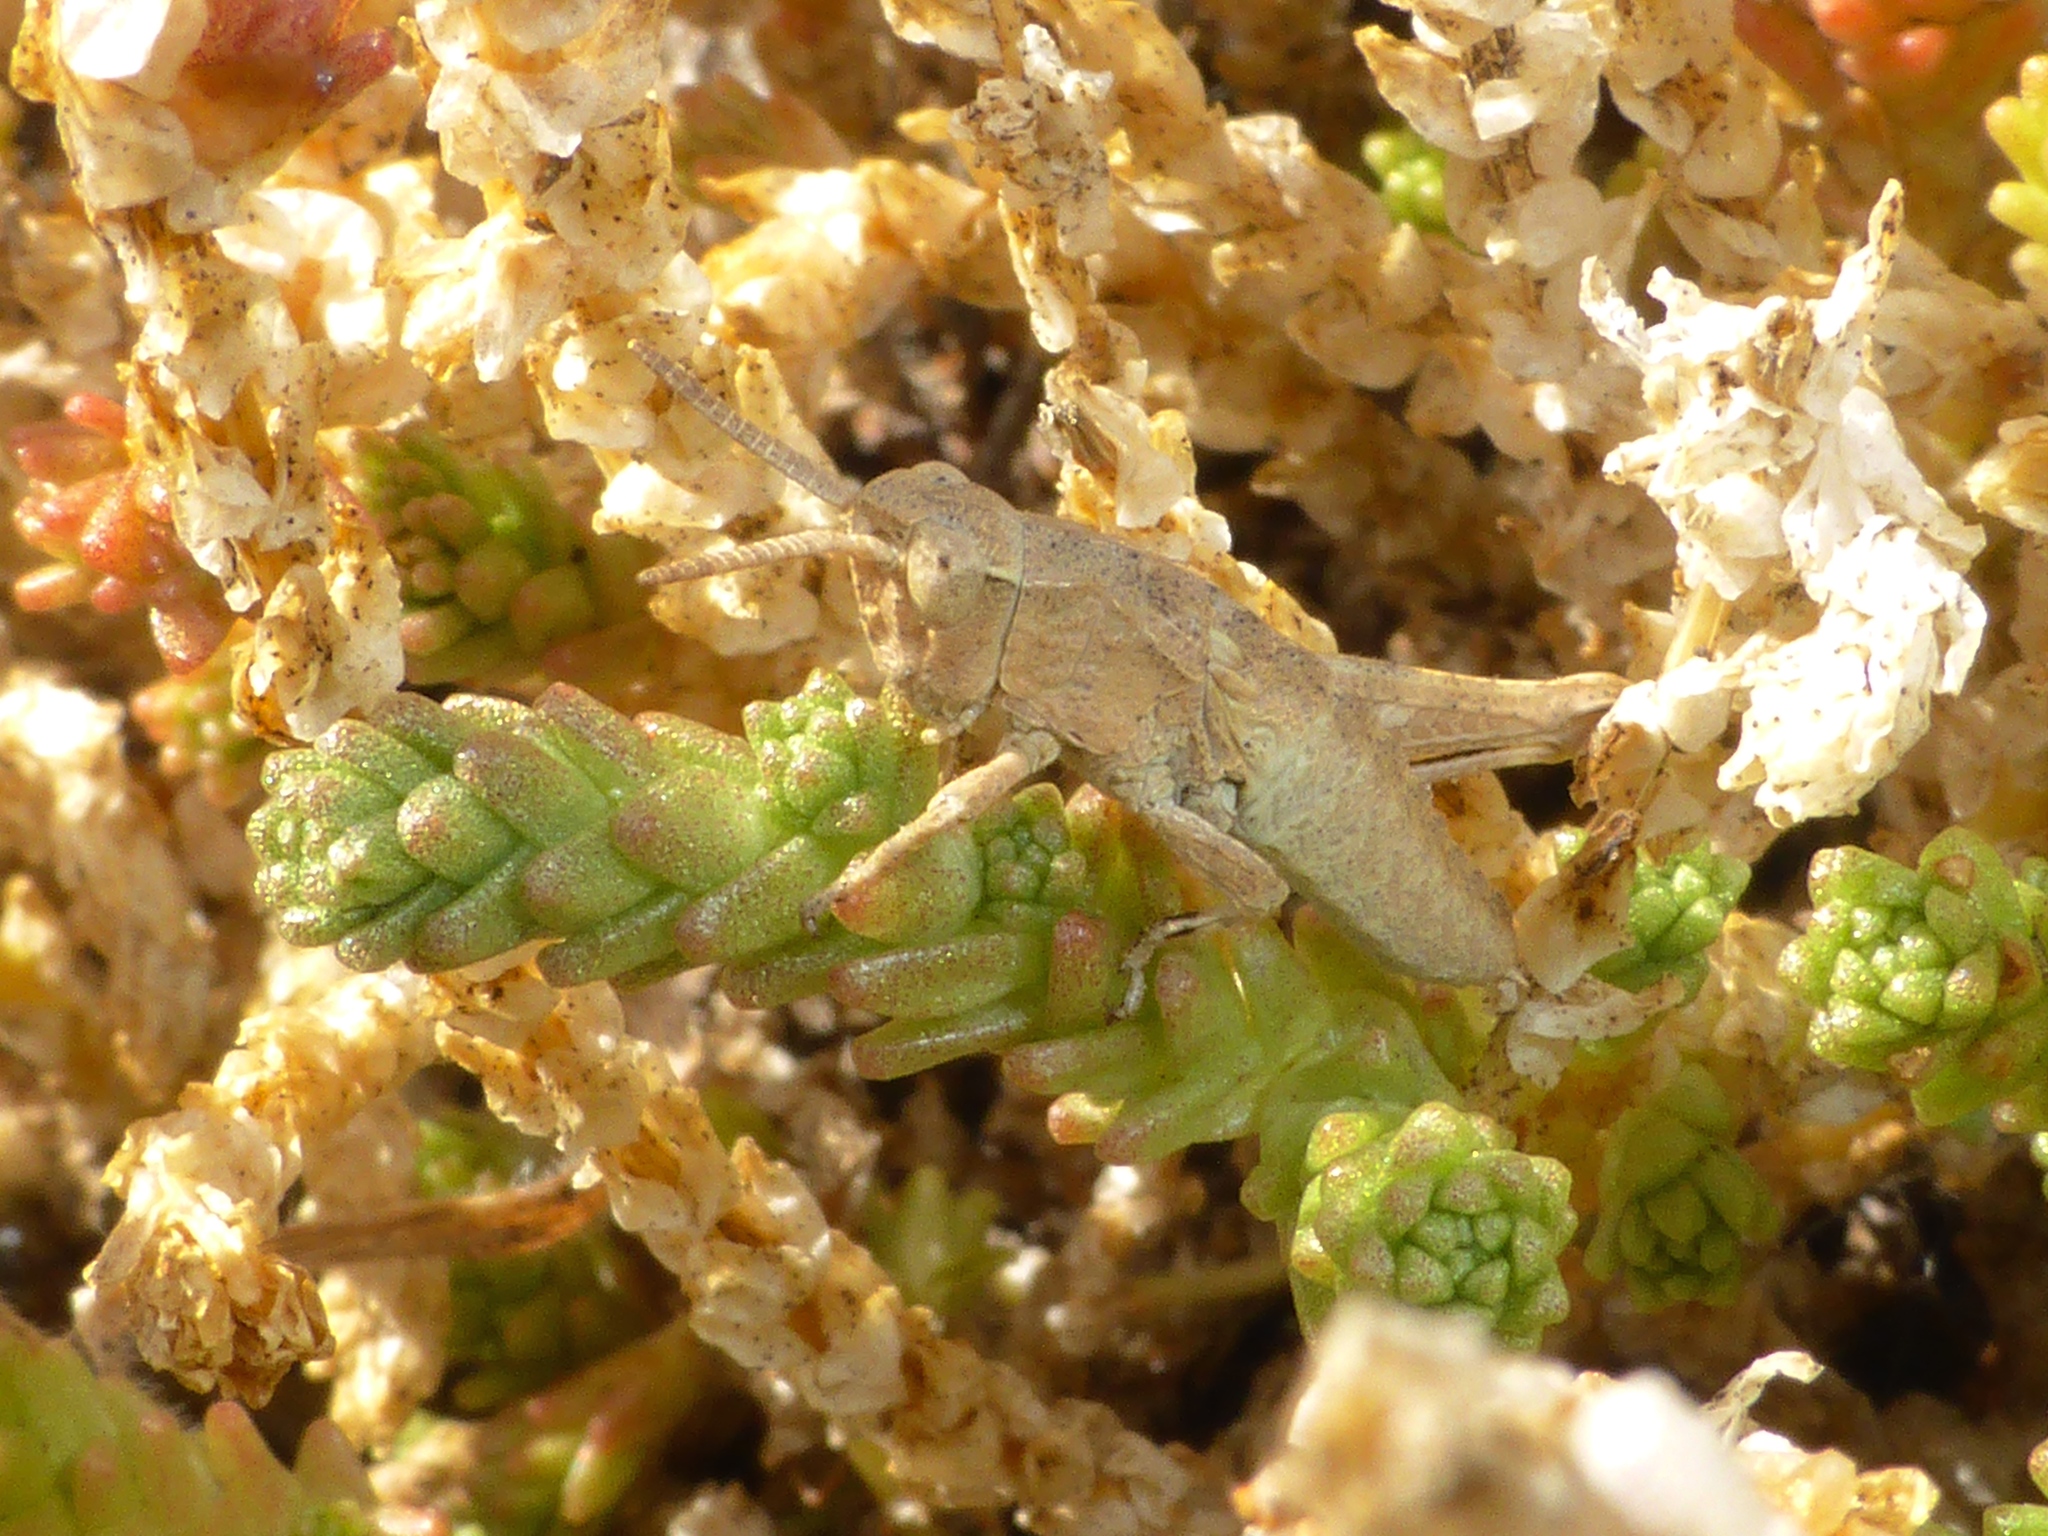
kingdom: Animalia
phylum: Arthropoda
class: Insecta
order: Orthoptera
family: Acrididae
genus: Sigaus
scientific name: Sigaus campestris
